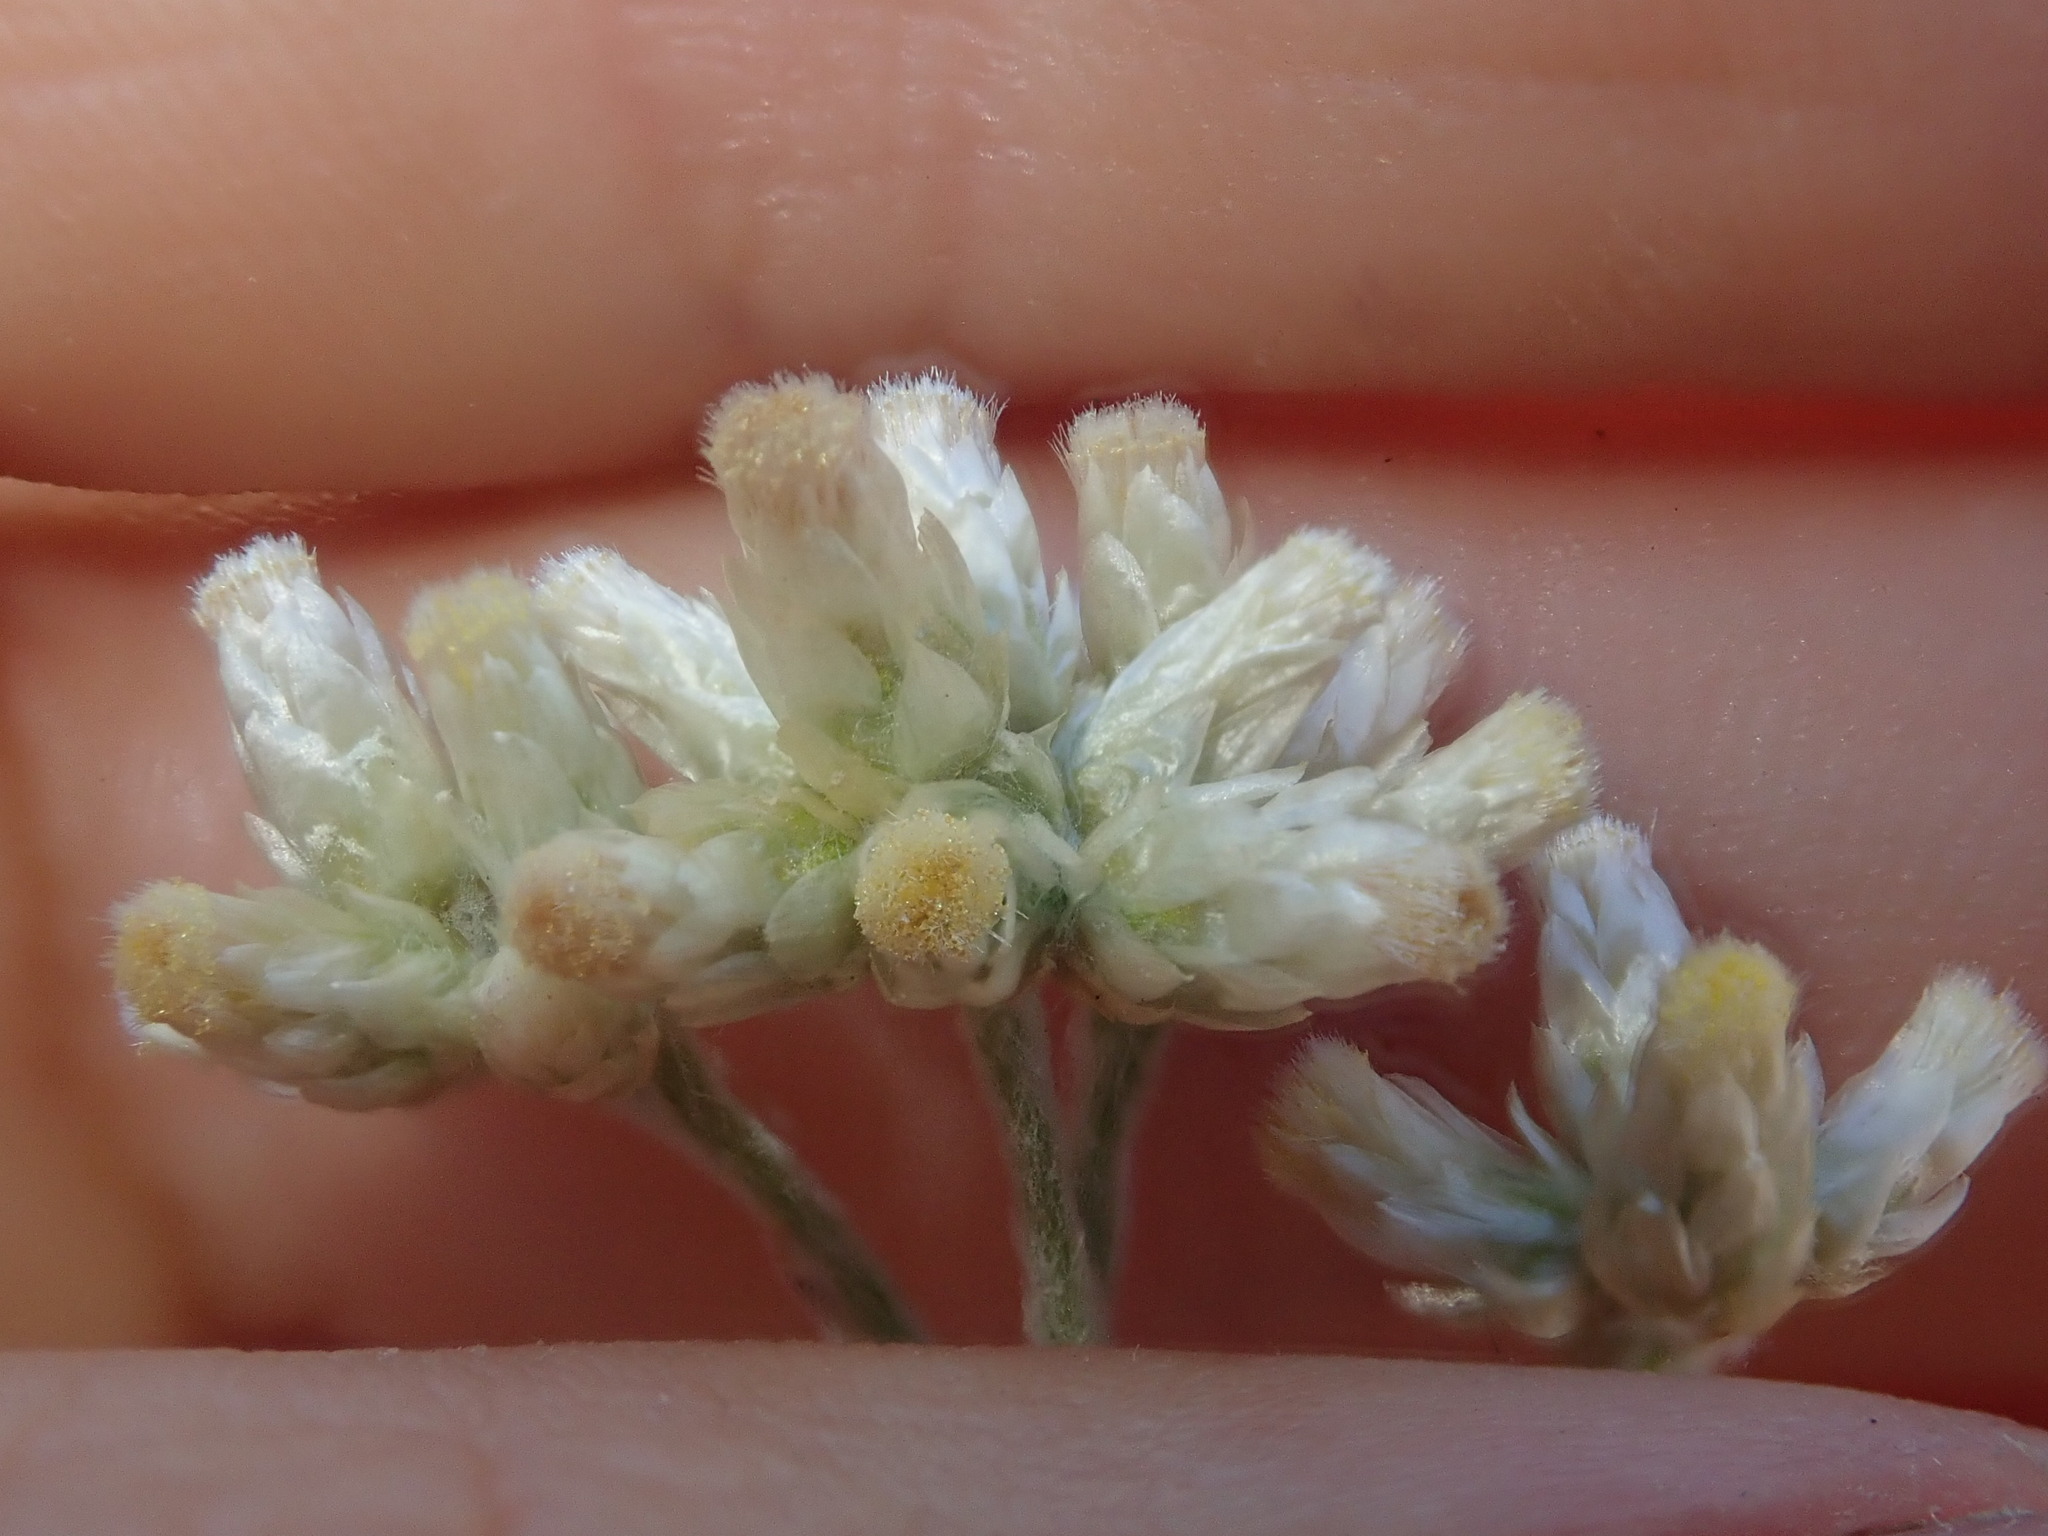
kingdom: Plantae
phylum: Tracheophyta
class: Magnoliopsida
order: Asterales
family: Asteraceae
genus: Pseudognaphalium
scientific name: Pseudognaphalium thermale
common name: Northwestern rabbit-tobacco
